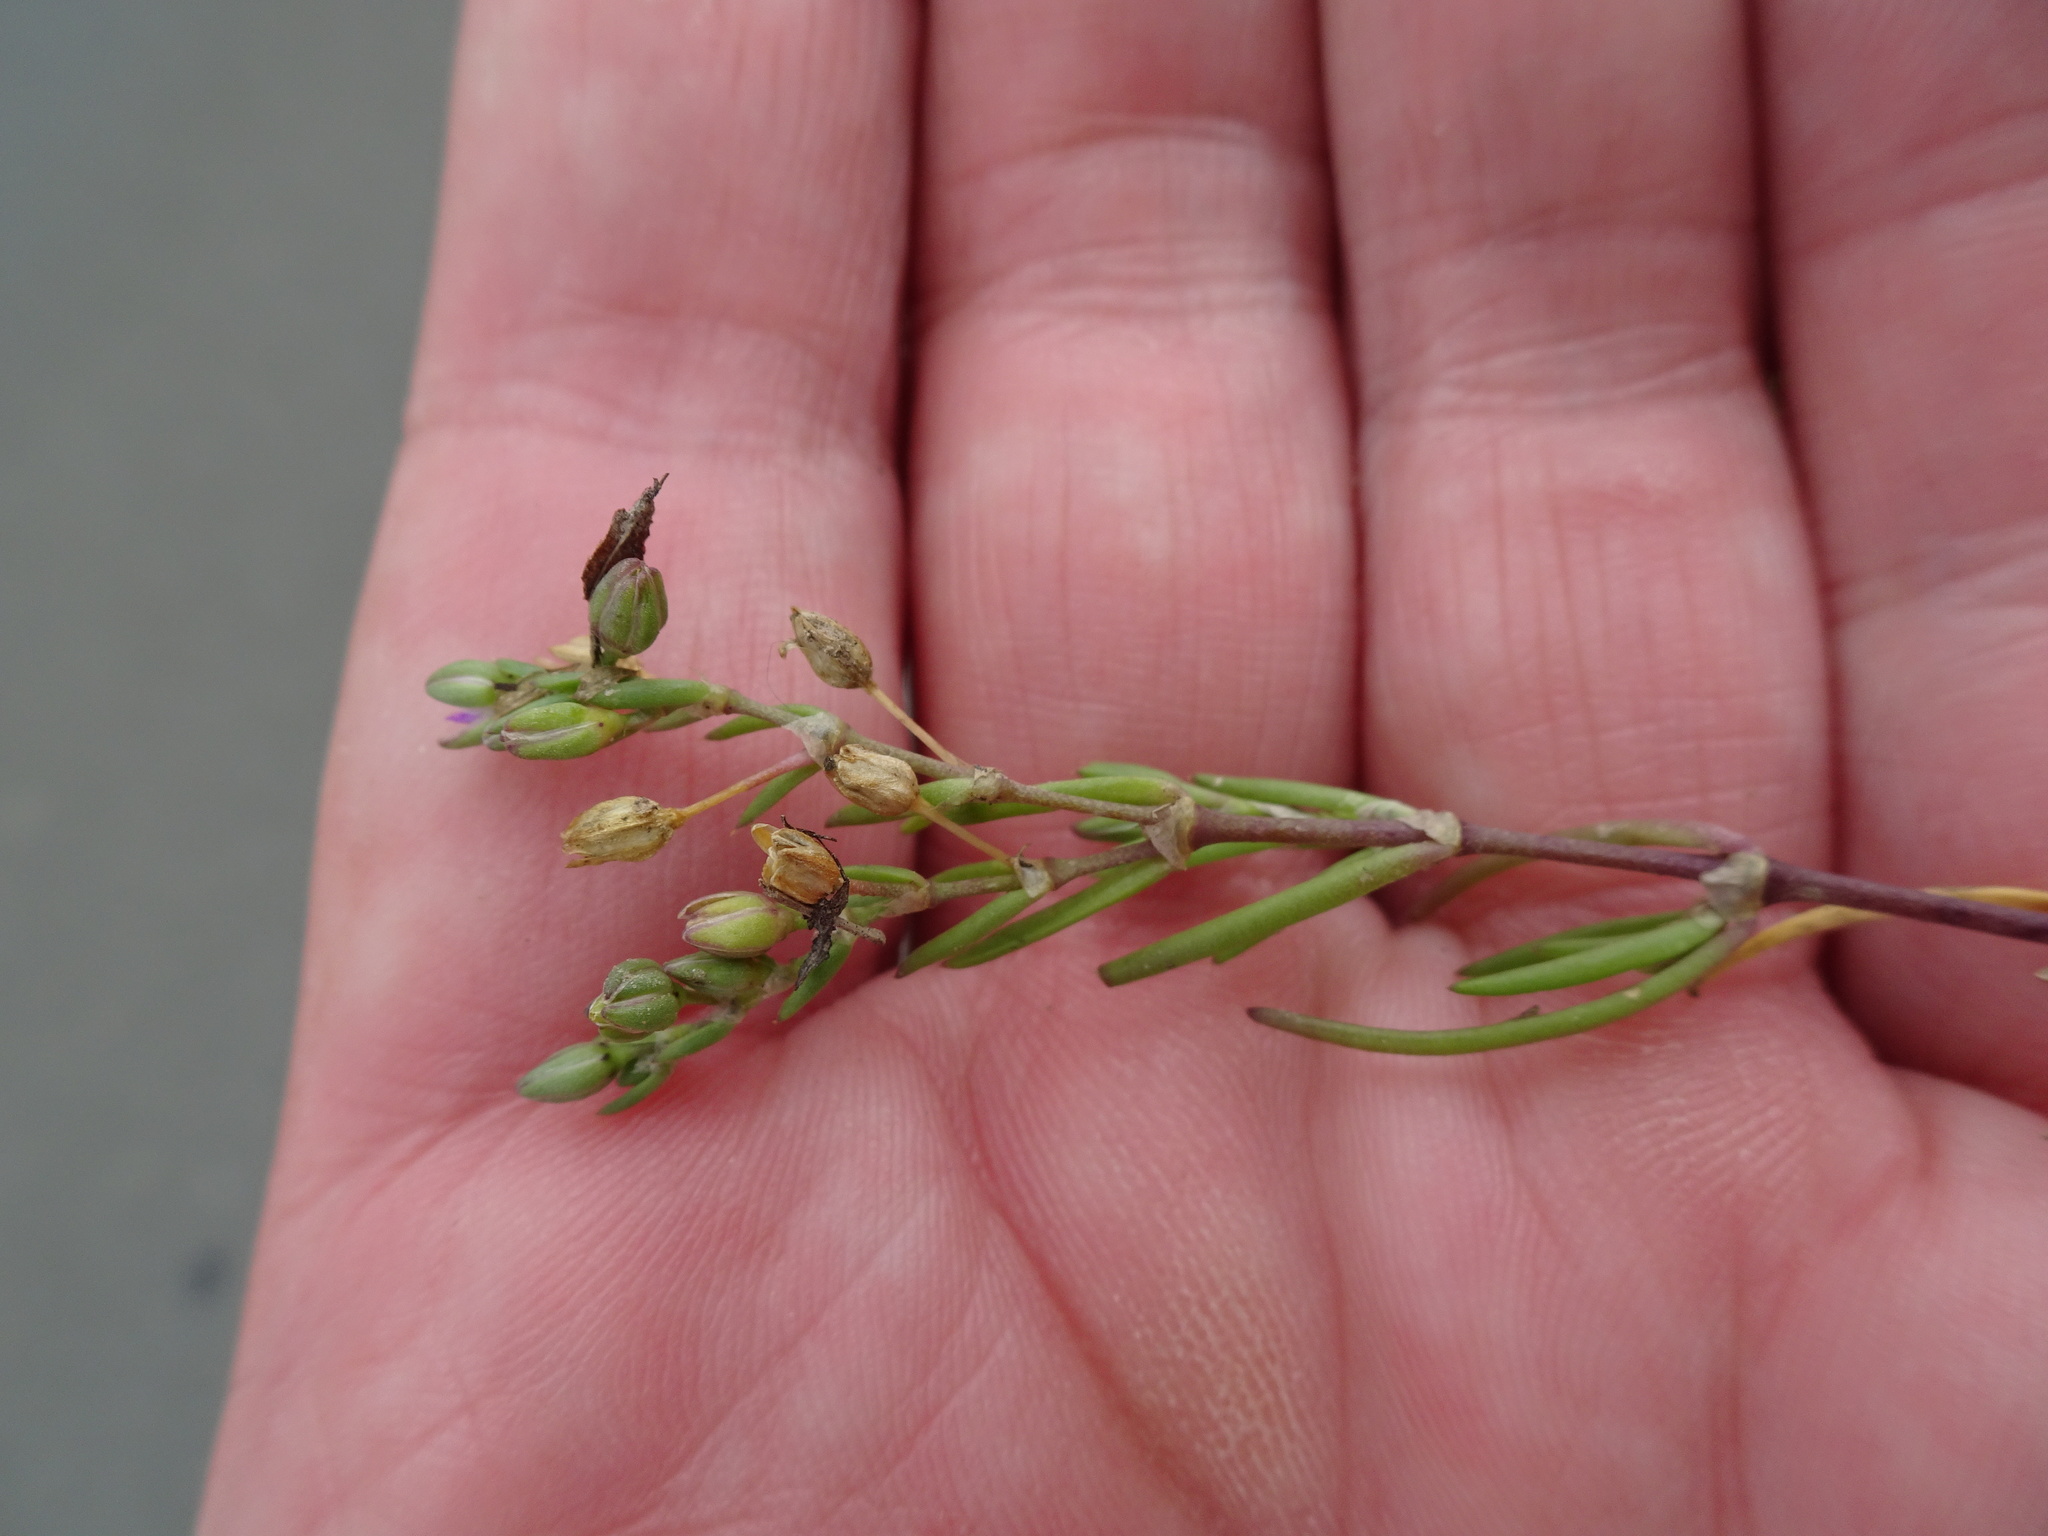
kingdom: Plantae
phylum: Tracheophyta
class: Magnoliopsida
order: Caryophyllales
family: Caryophyllaceae
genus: Spergularia
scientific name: Spergularia marina
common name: Lesser sea-spurrey
